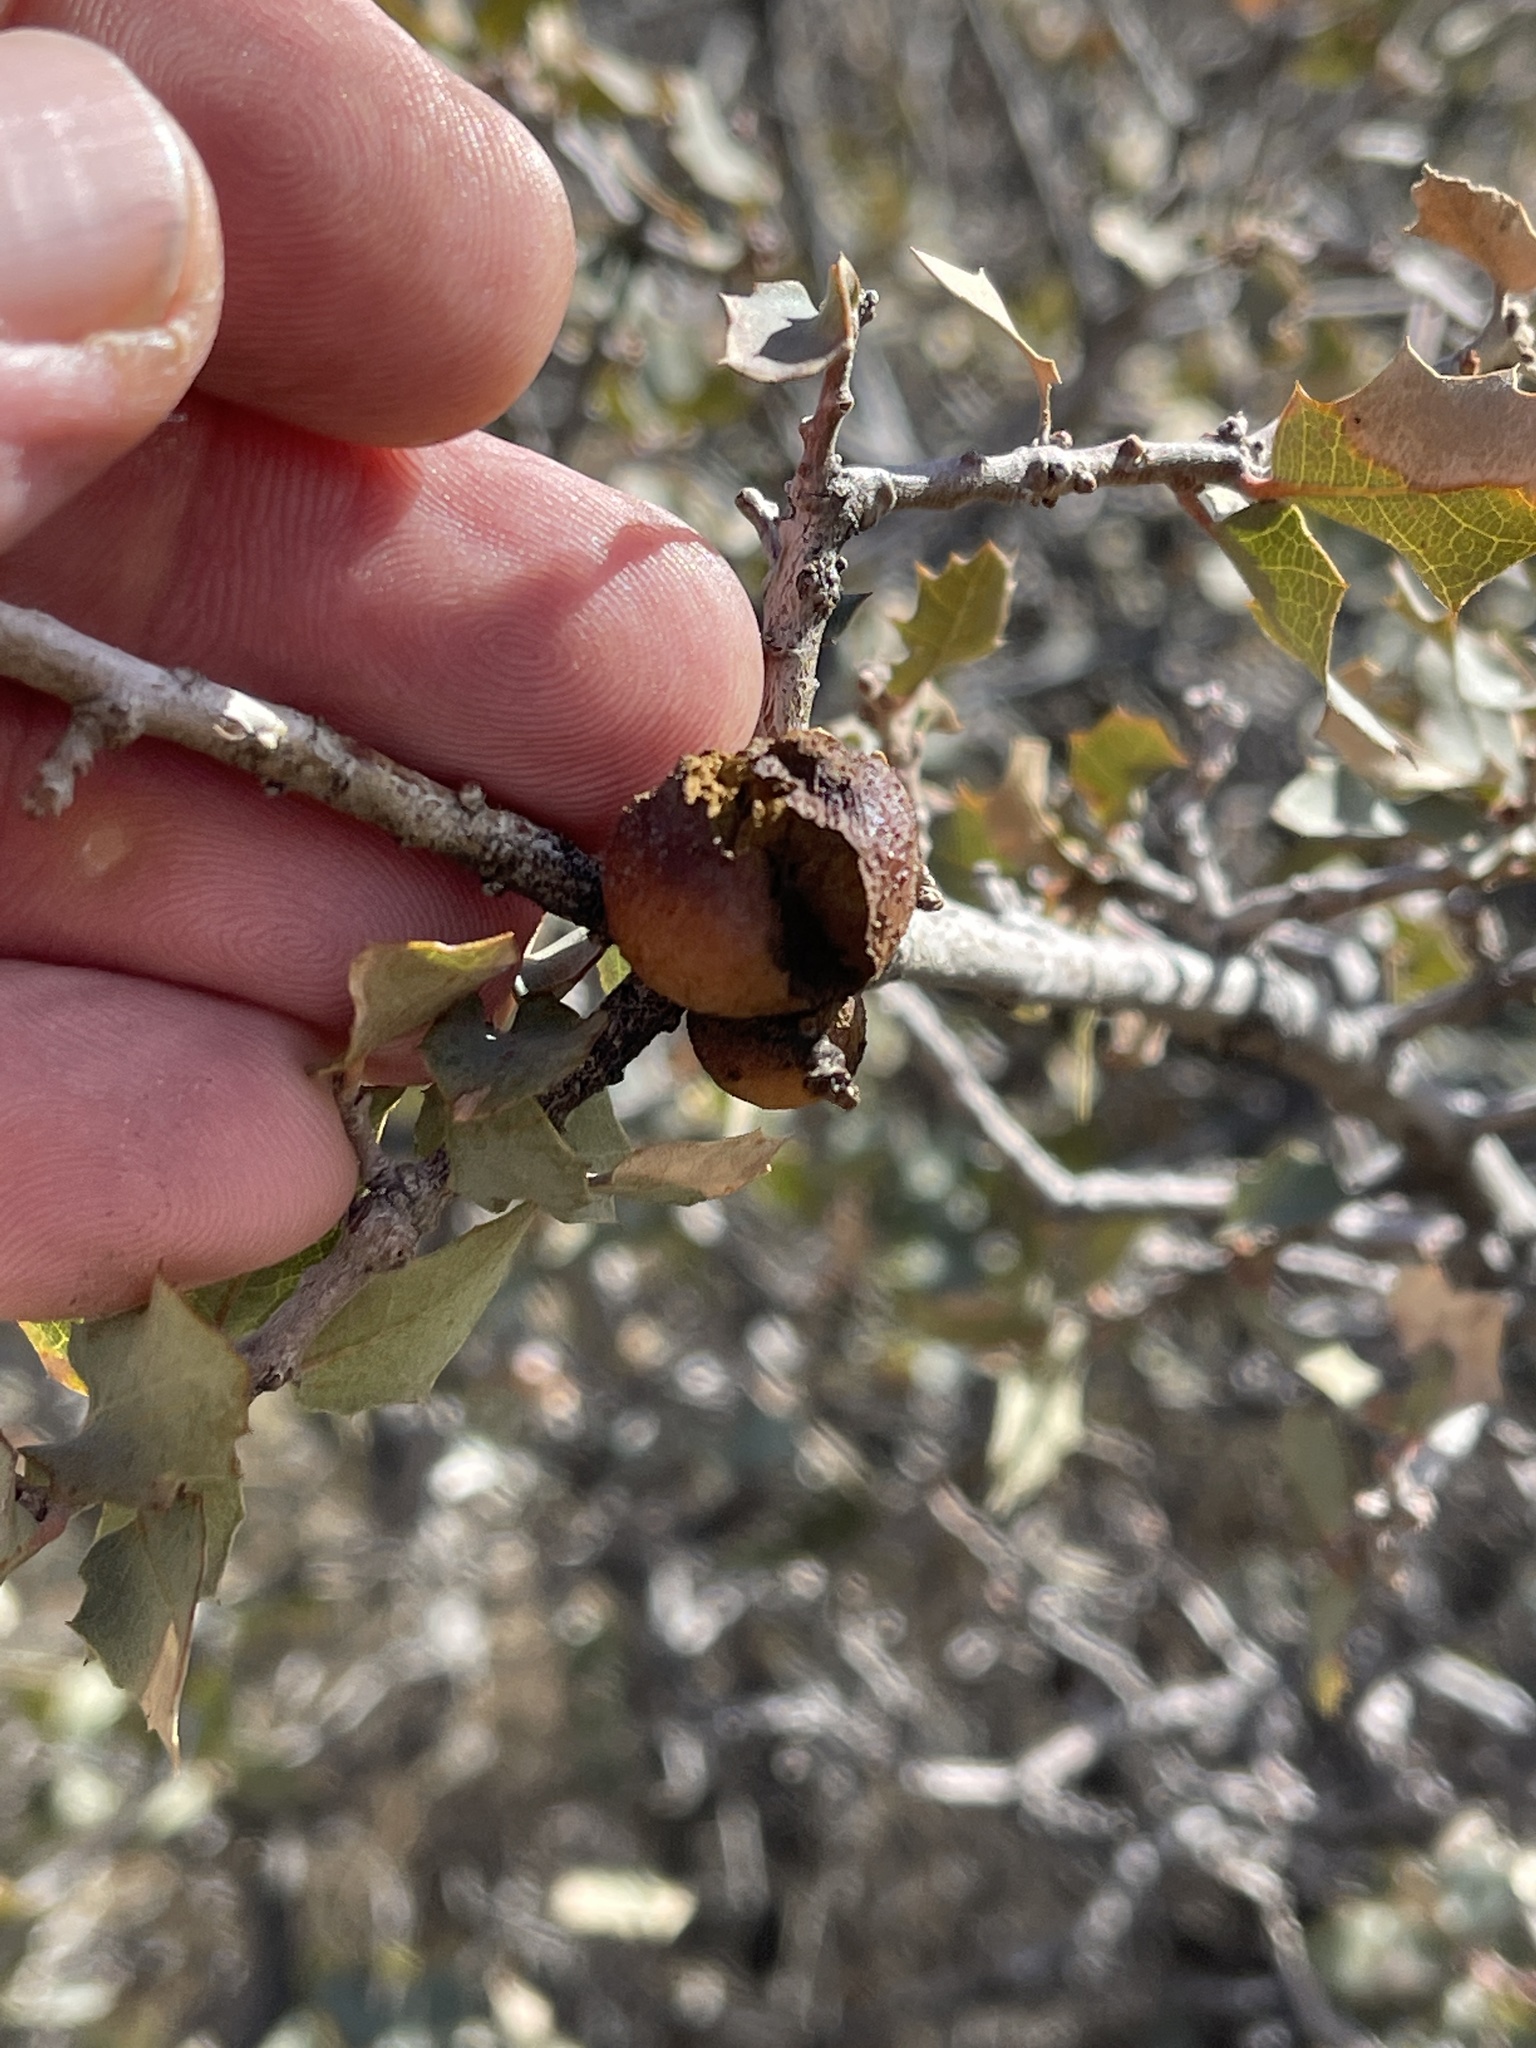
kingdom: Plantae
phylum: Tracheophyta
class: Magnoliopsida
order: Fagales
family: Fagaceae
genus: Quercus
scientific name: Quercus turbinella
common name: Sonoran scrub oak
